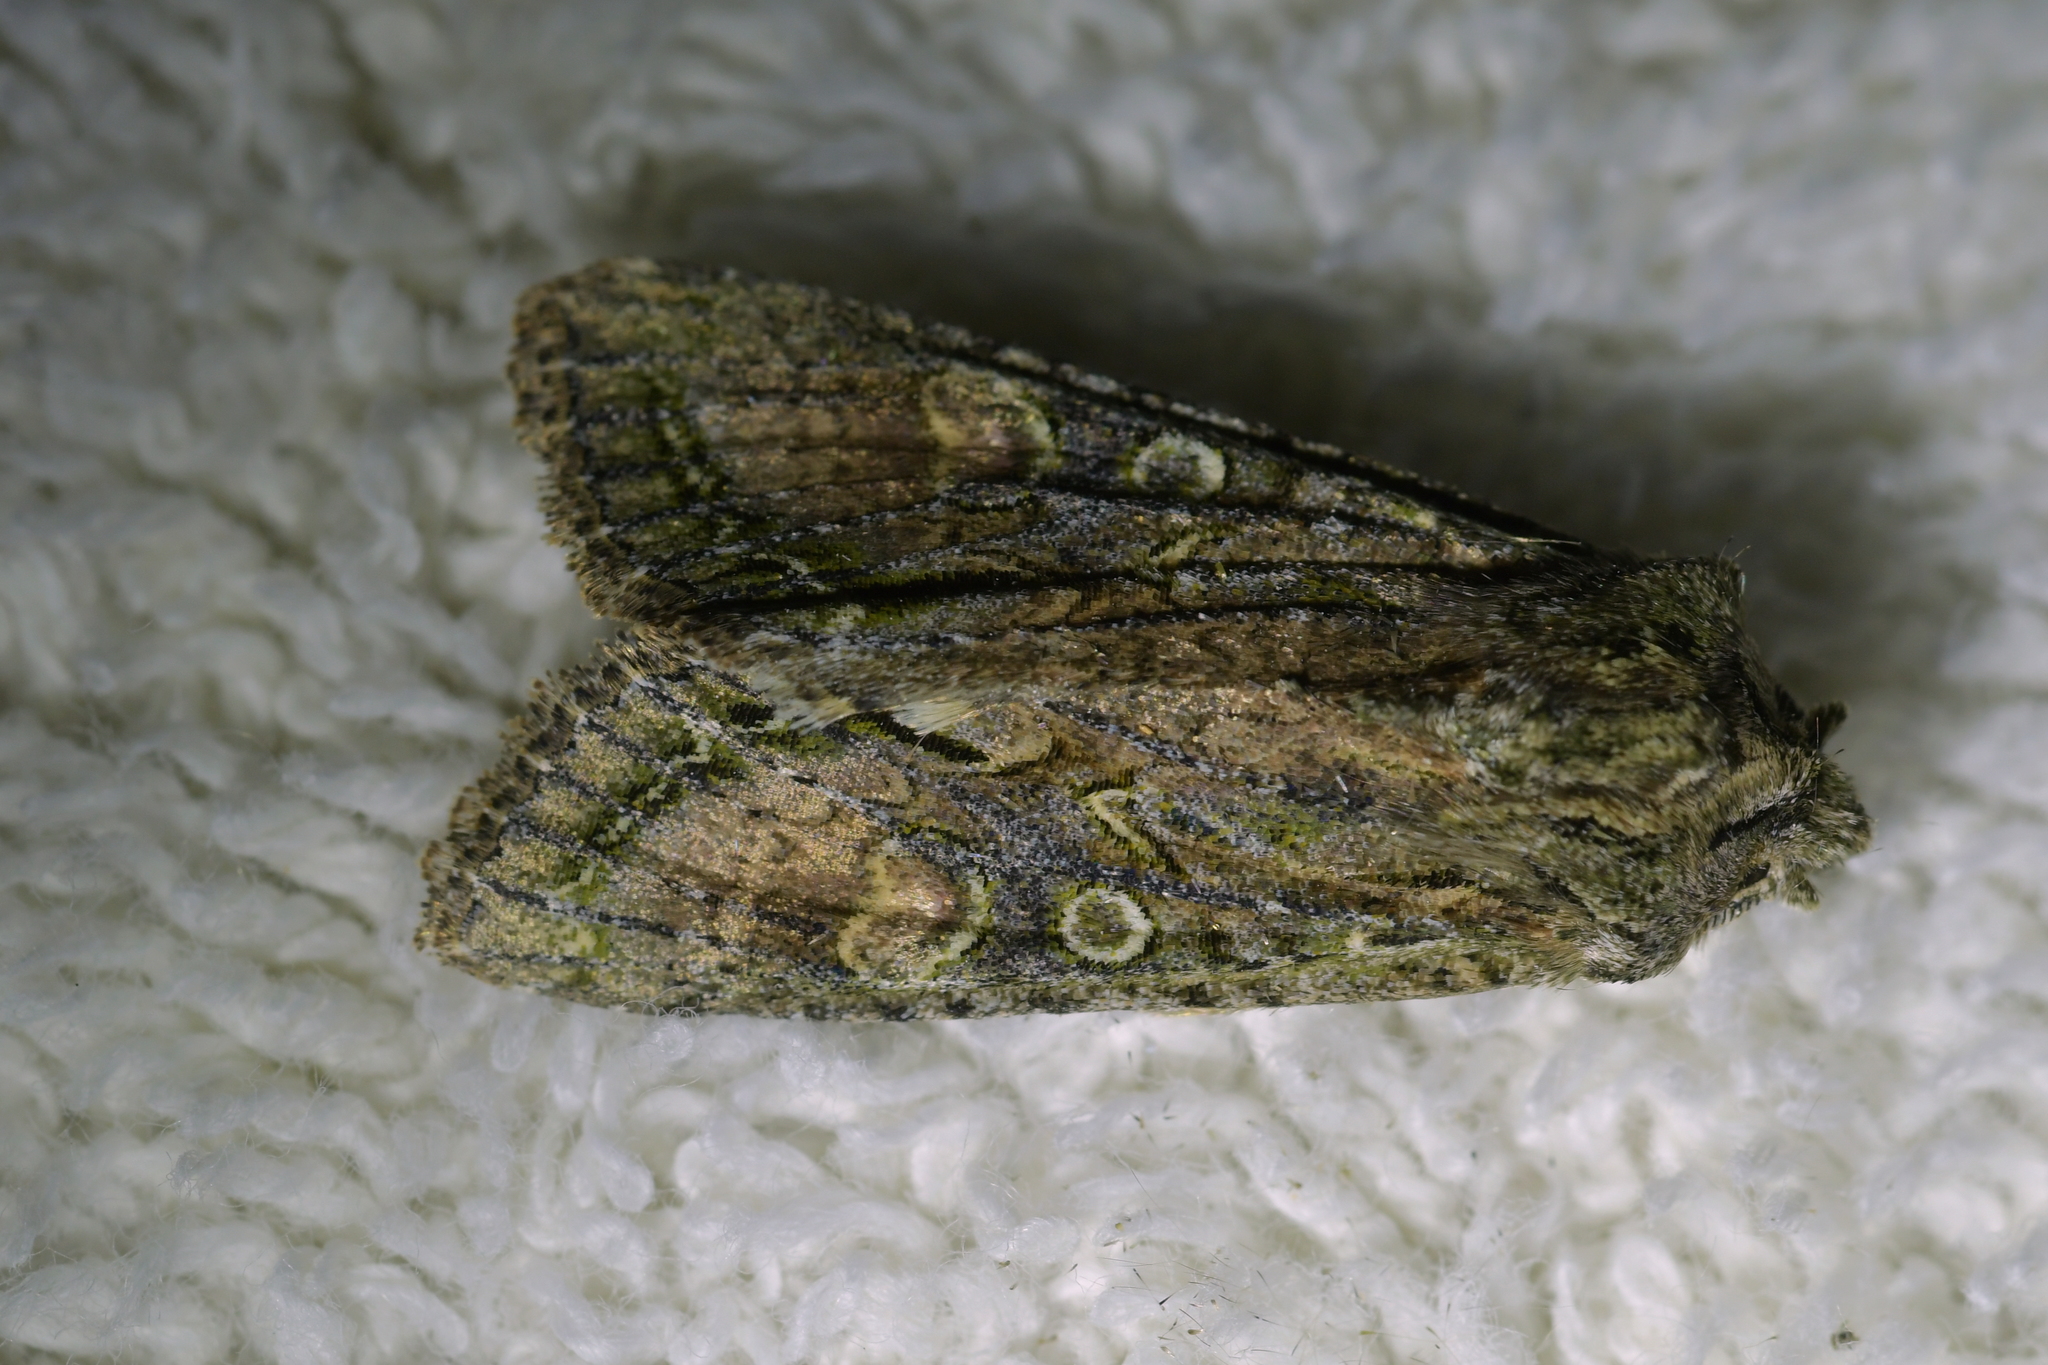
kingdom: Animalia
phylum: Arthropoda
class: Insecta
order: Lepidoptera
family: Noctuidae
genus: Ichneutica
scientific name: Ichneutica mutans
